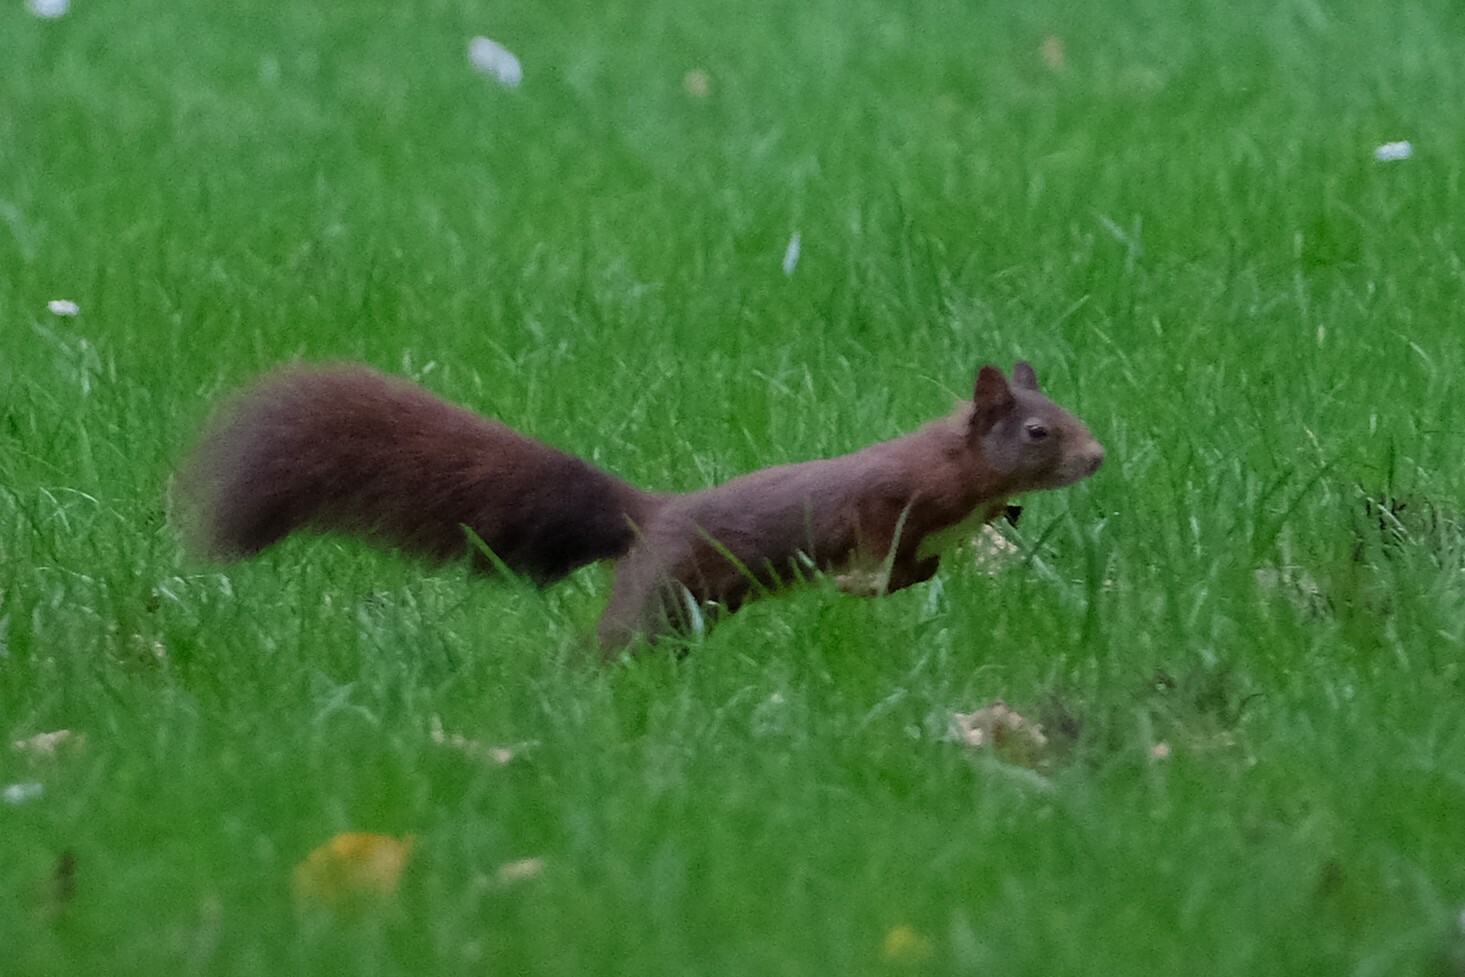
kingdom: Animalia
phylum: Chordata
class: Mammalia
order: Rodentia
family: Sciuridae
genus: Sciurus
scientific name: Sciurus vulgaris
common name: Eurasian red squirrel
